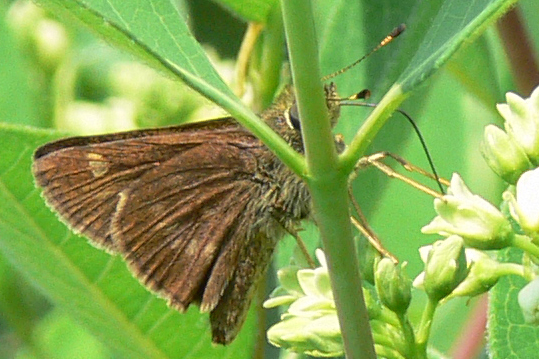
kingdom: Animalia
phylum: Arthropoda
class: Insecta
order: Lepidoptera
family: Hesperiidae
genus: Vernia
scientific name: Vernia verna
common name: Little glassywing
